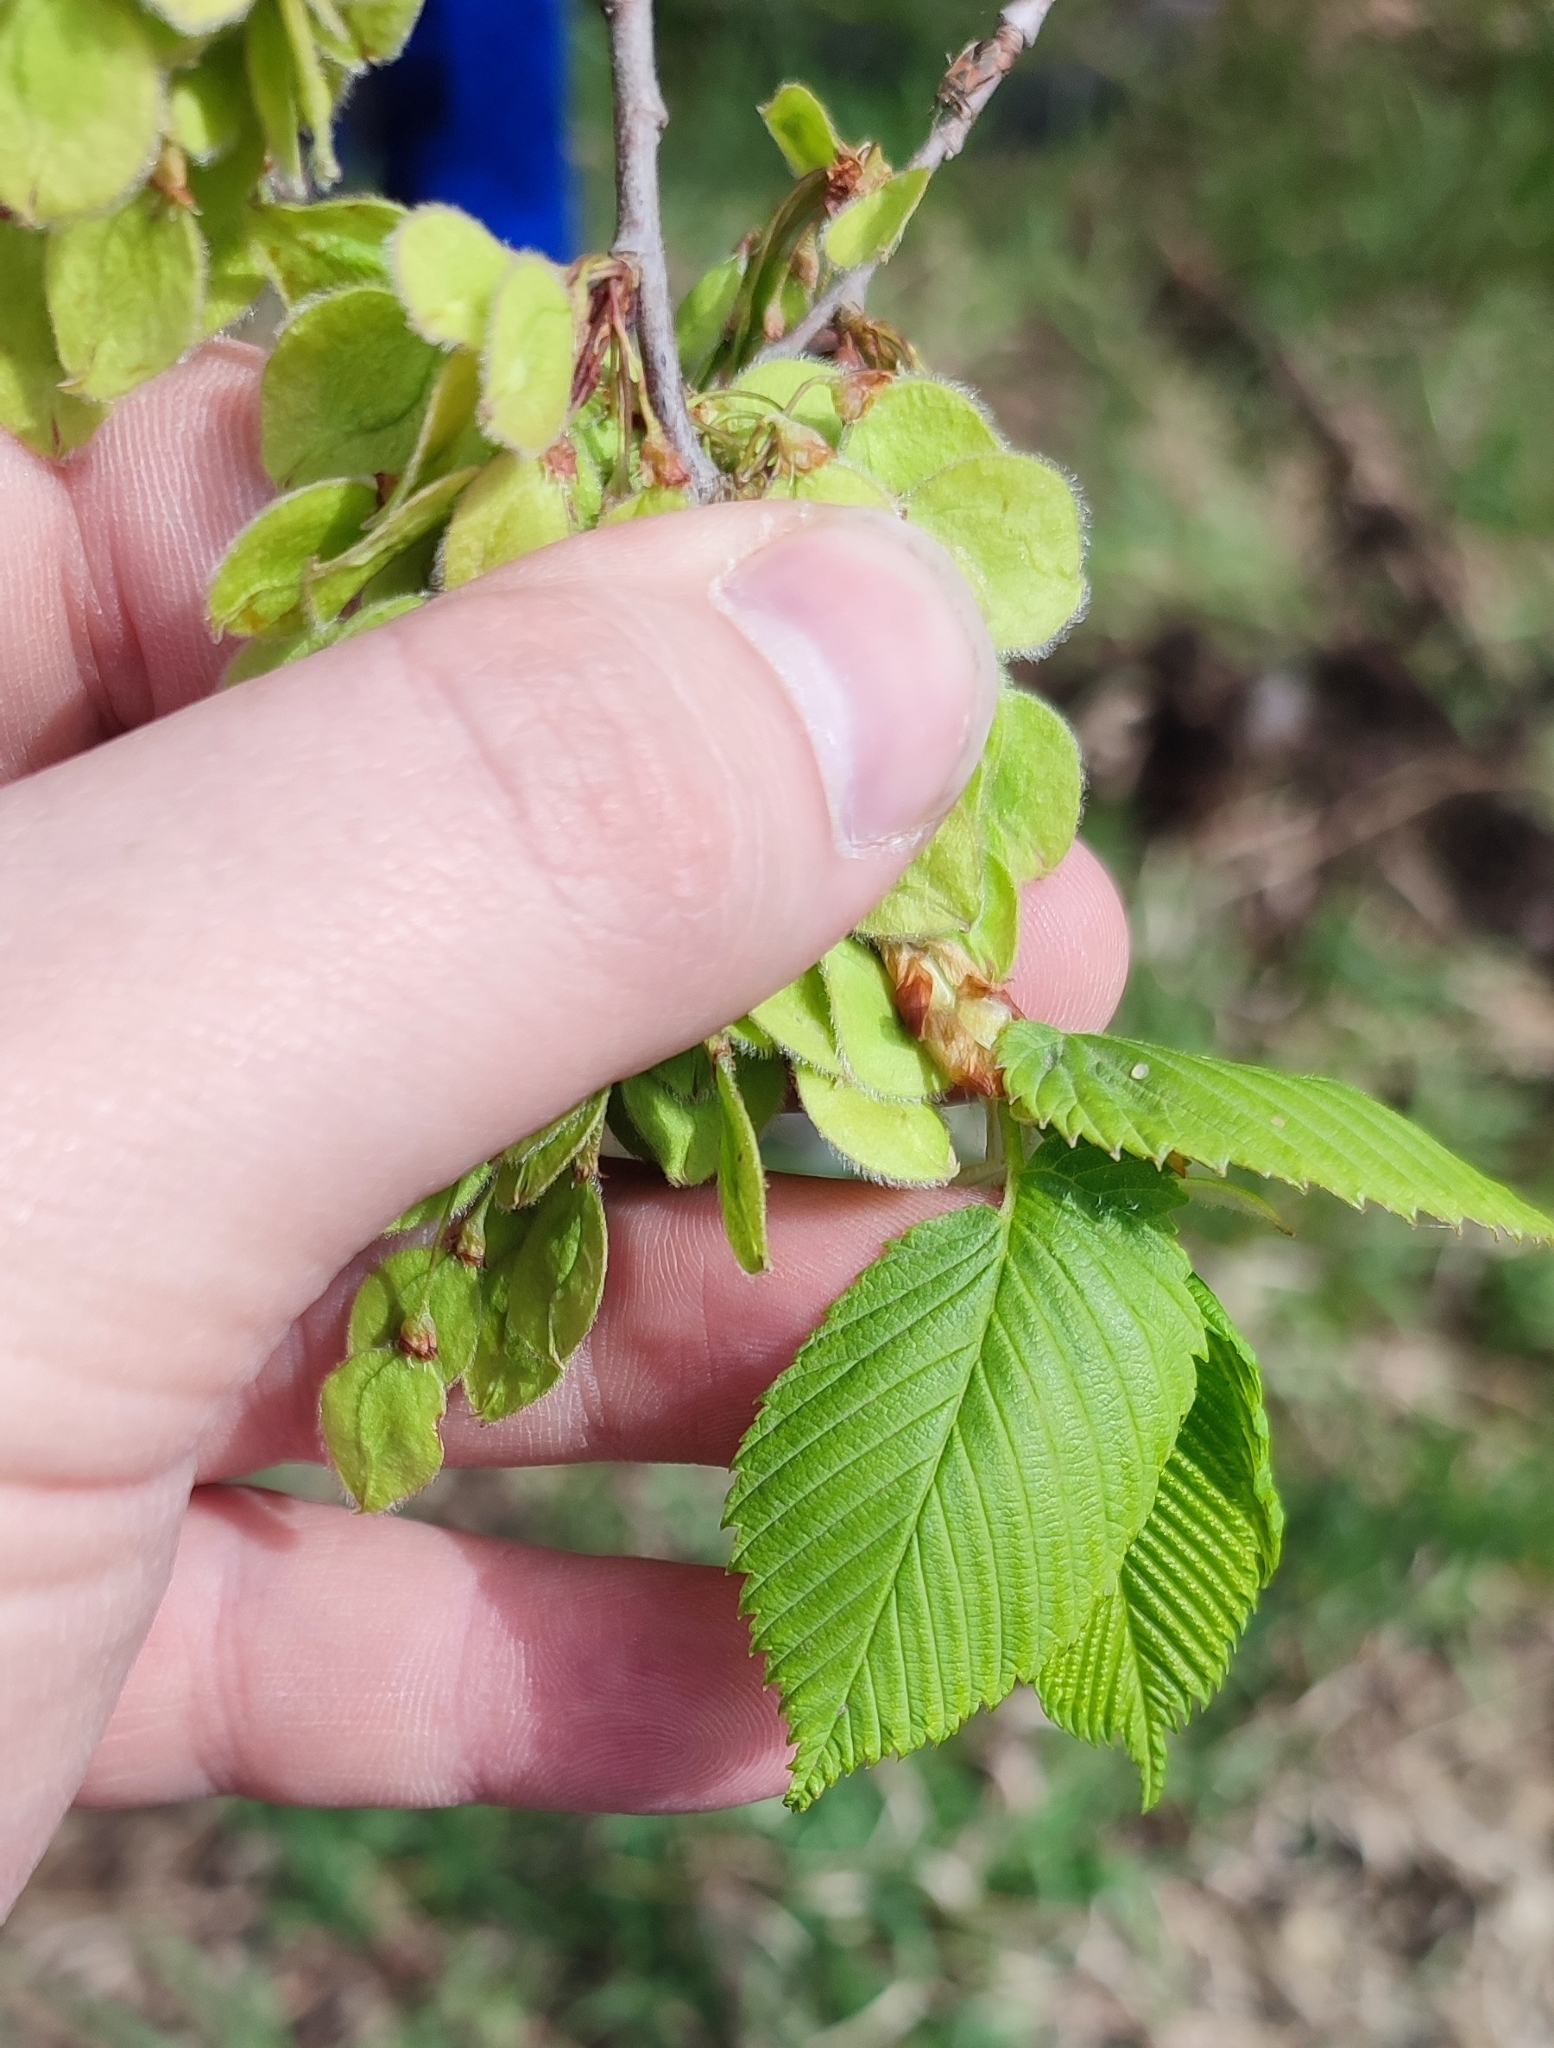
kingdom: Plantae
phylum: Tracheophyta
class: Magnoliopsida
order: Rosales
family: Ulmaceae
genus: Ulmus
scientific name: Ulmus laevis
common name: European white-elm
